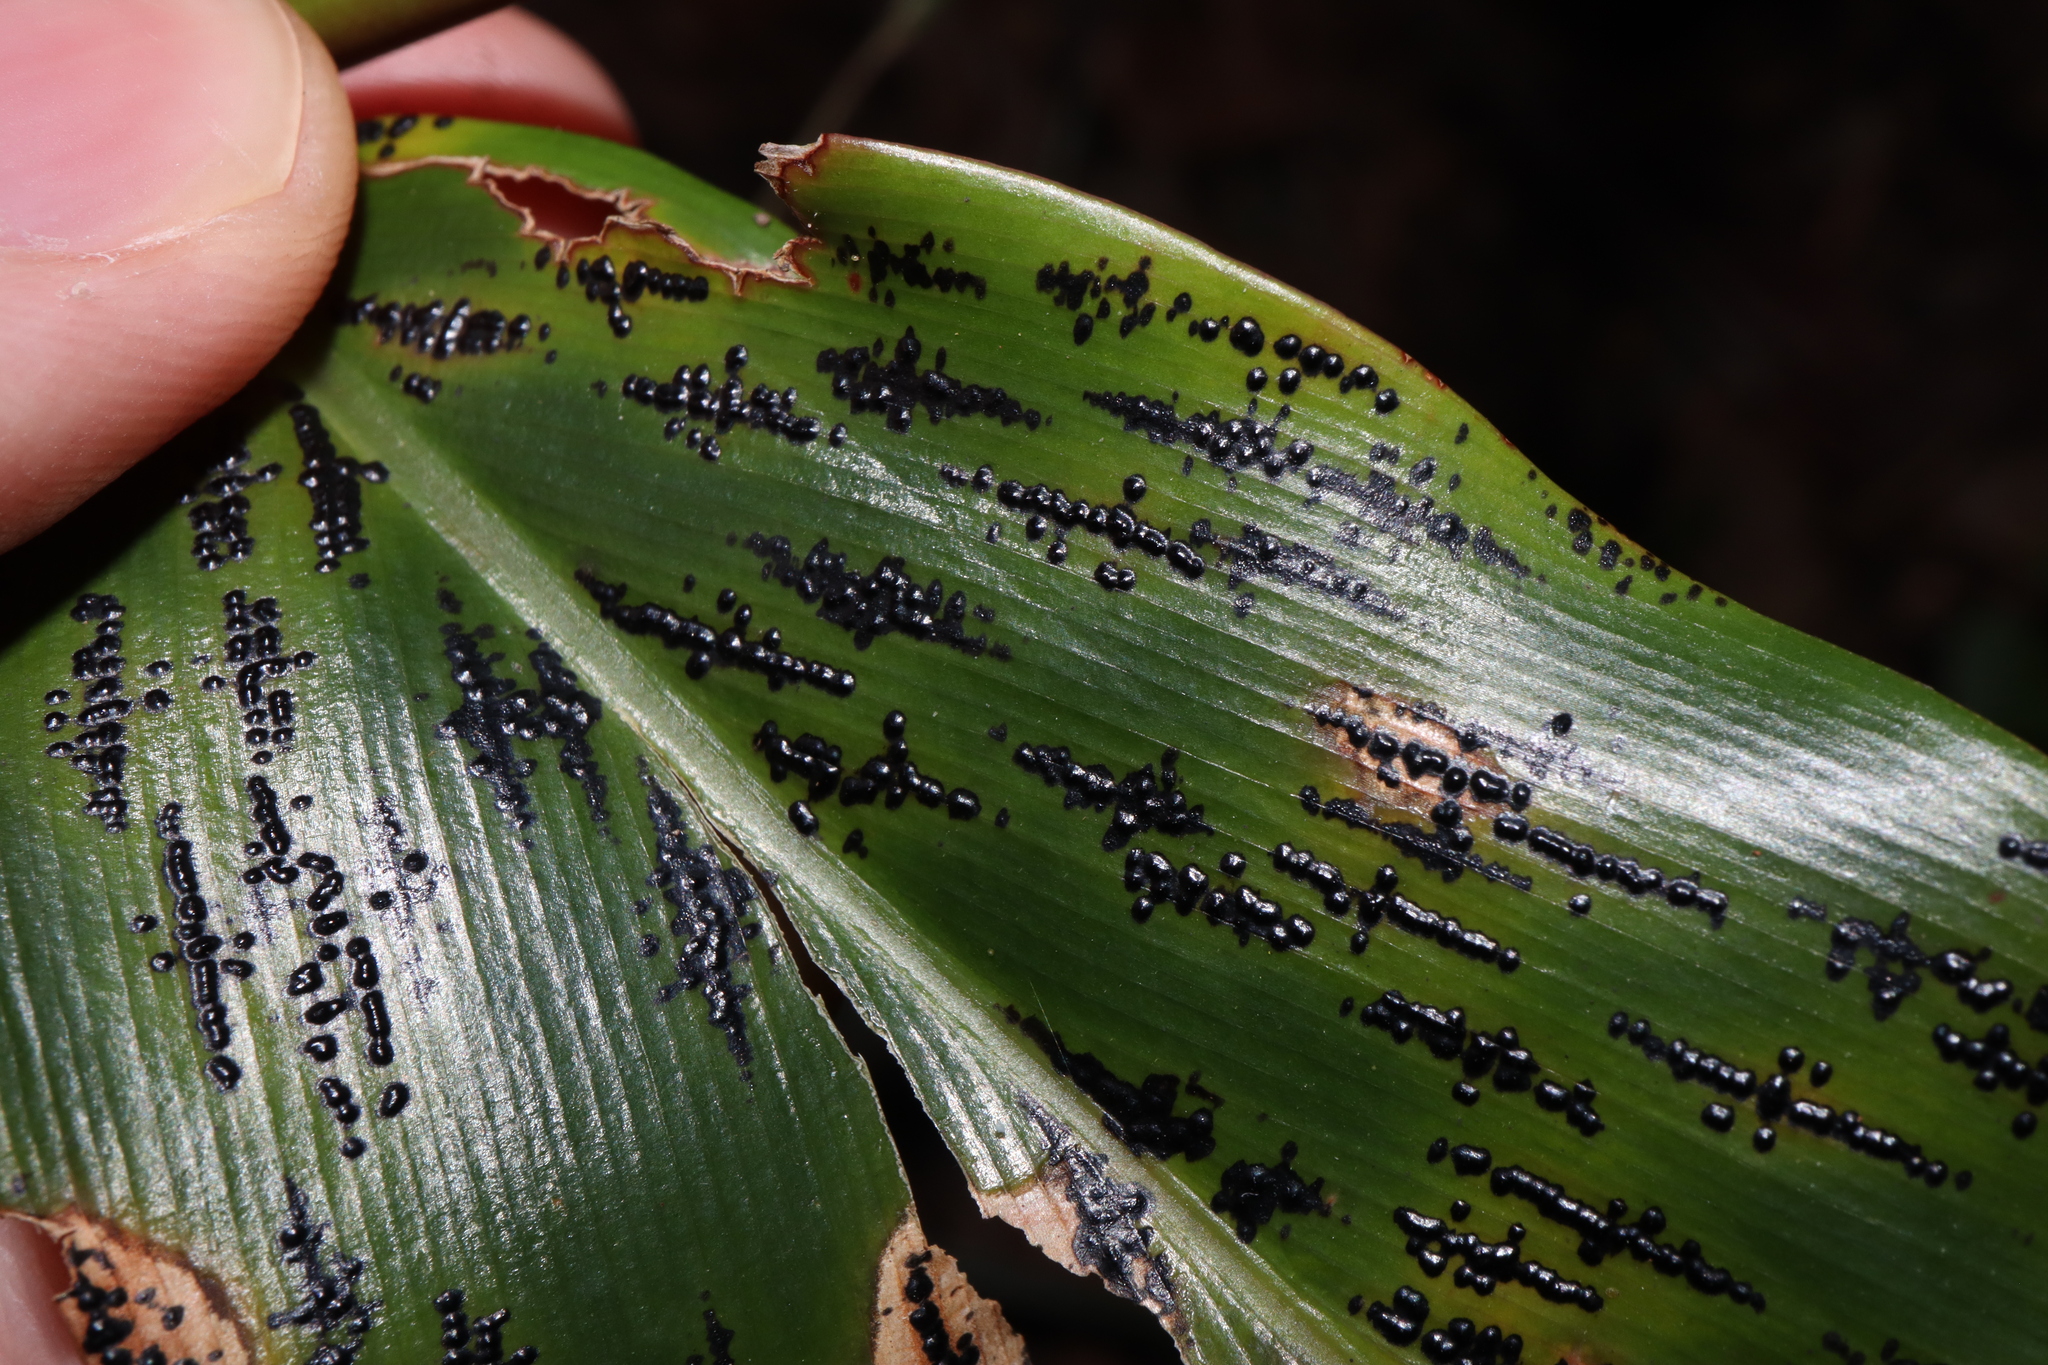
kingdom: Fungi
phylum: Ascomycota
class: Sordariomycetes
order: Phyllachorales
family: Phyllachoraceae
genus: Phyllachora
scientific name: Phyllachora alpiniae
